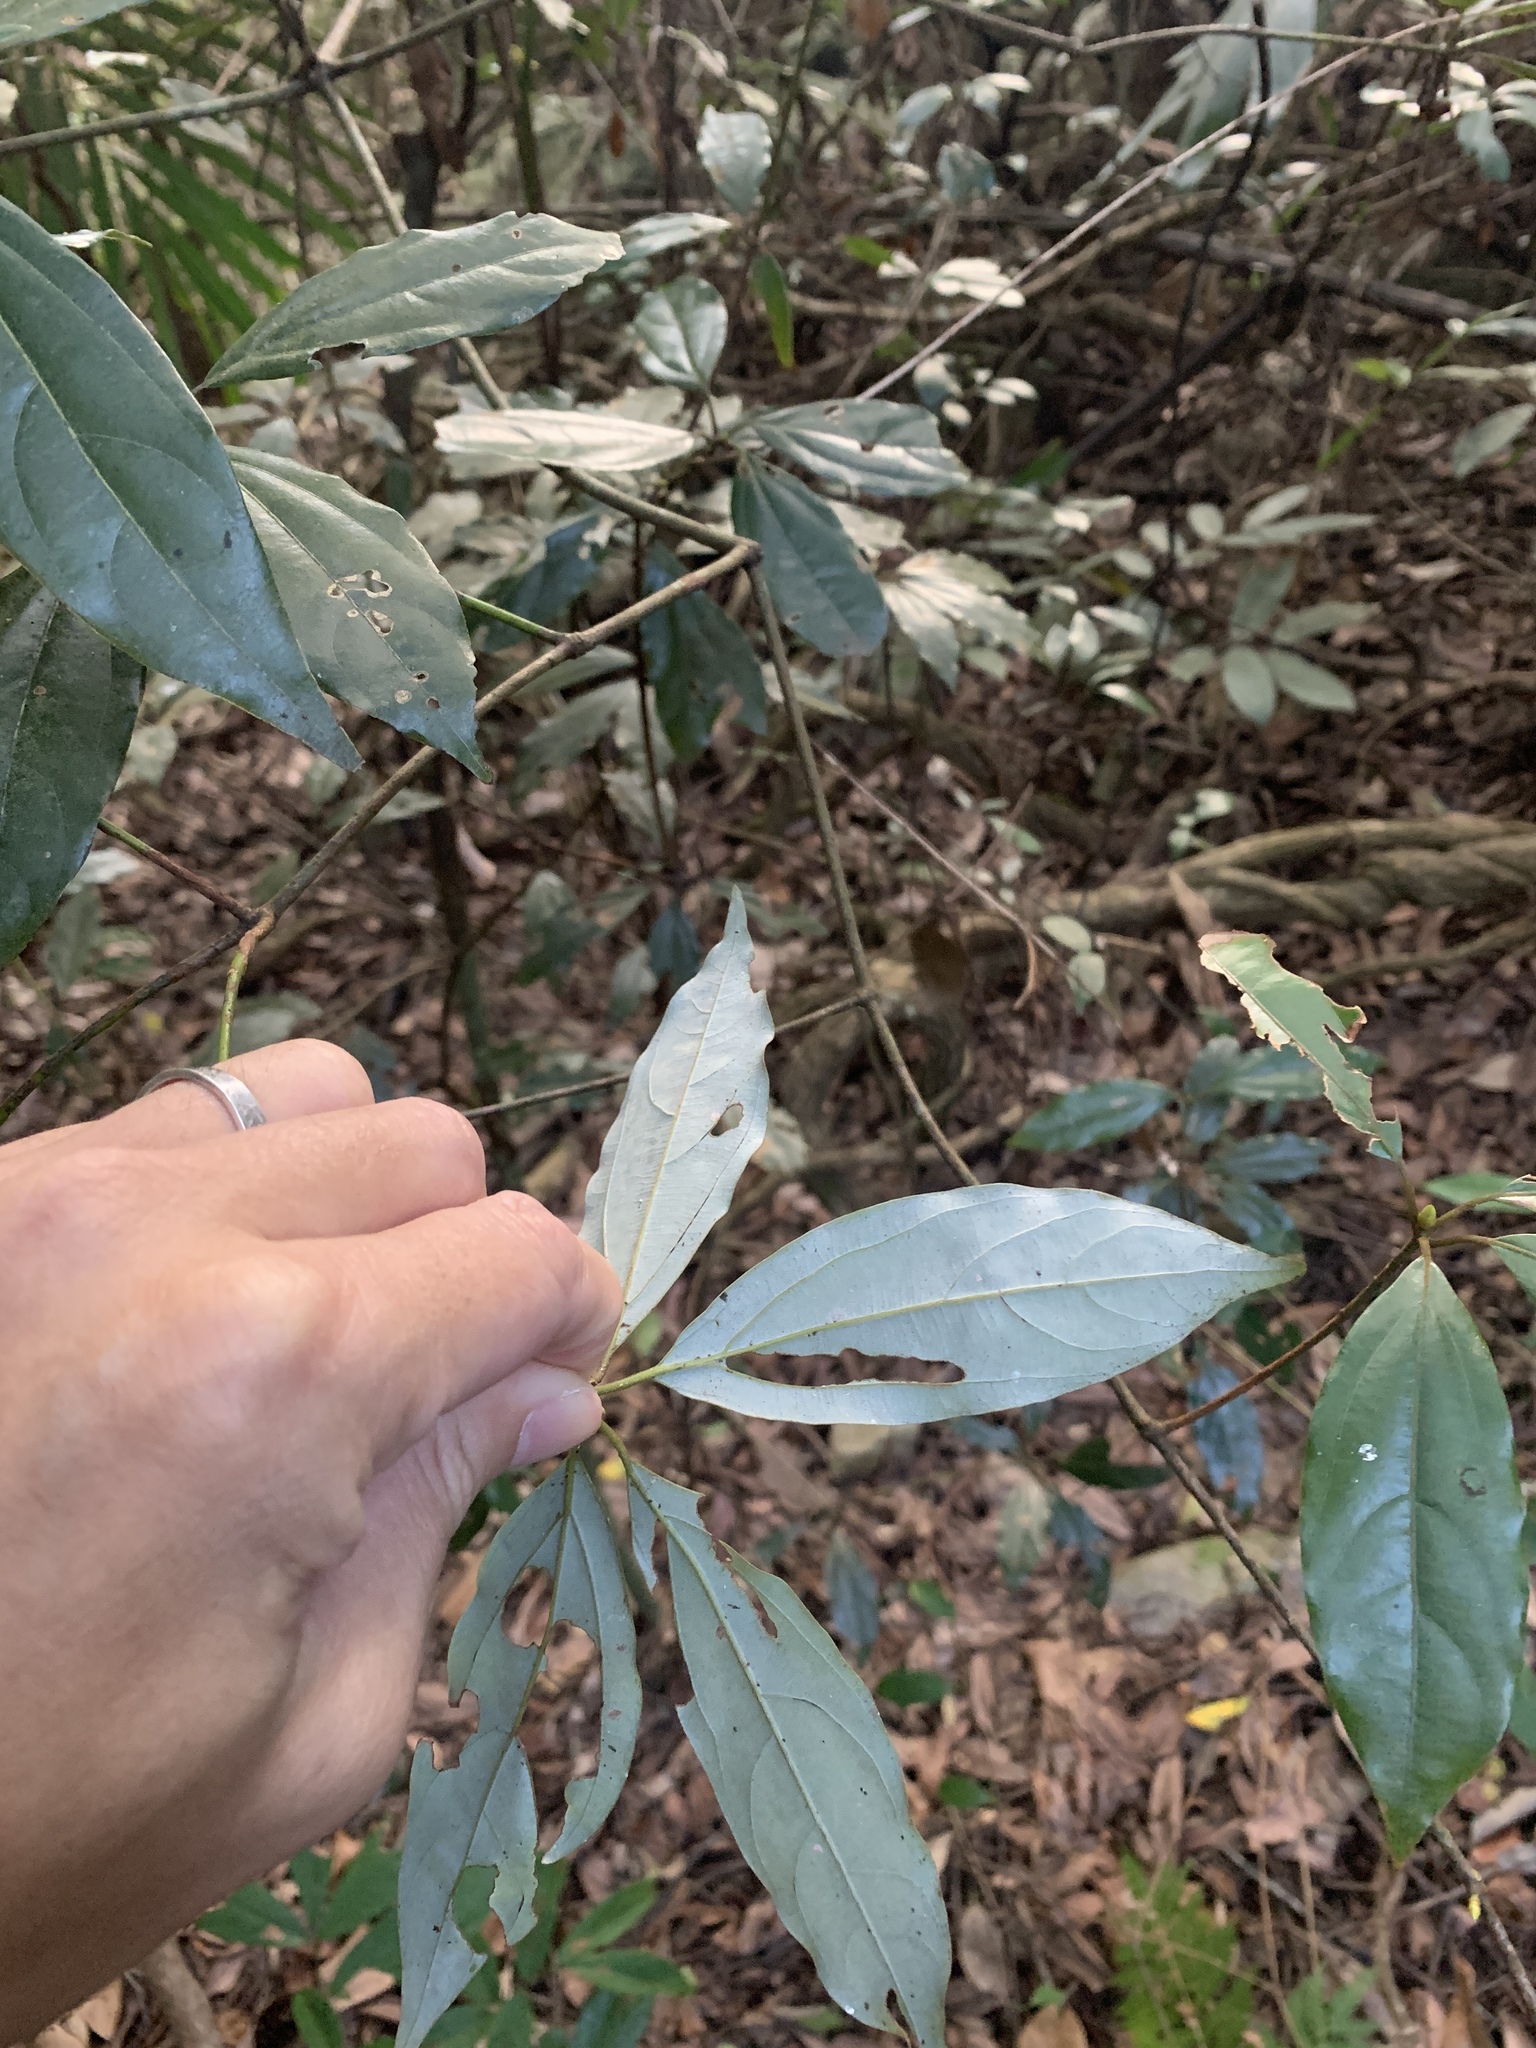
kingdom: Plantae
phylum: Tracheophyta
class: Magnoliopsida
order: Laurales
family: Lauraceae
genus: Neolitsea
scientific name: Neolitsea variabillima
